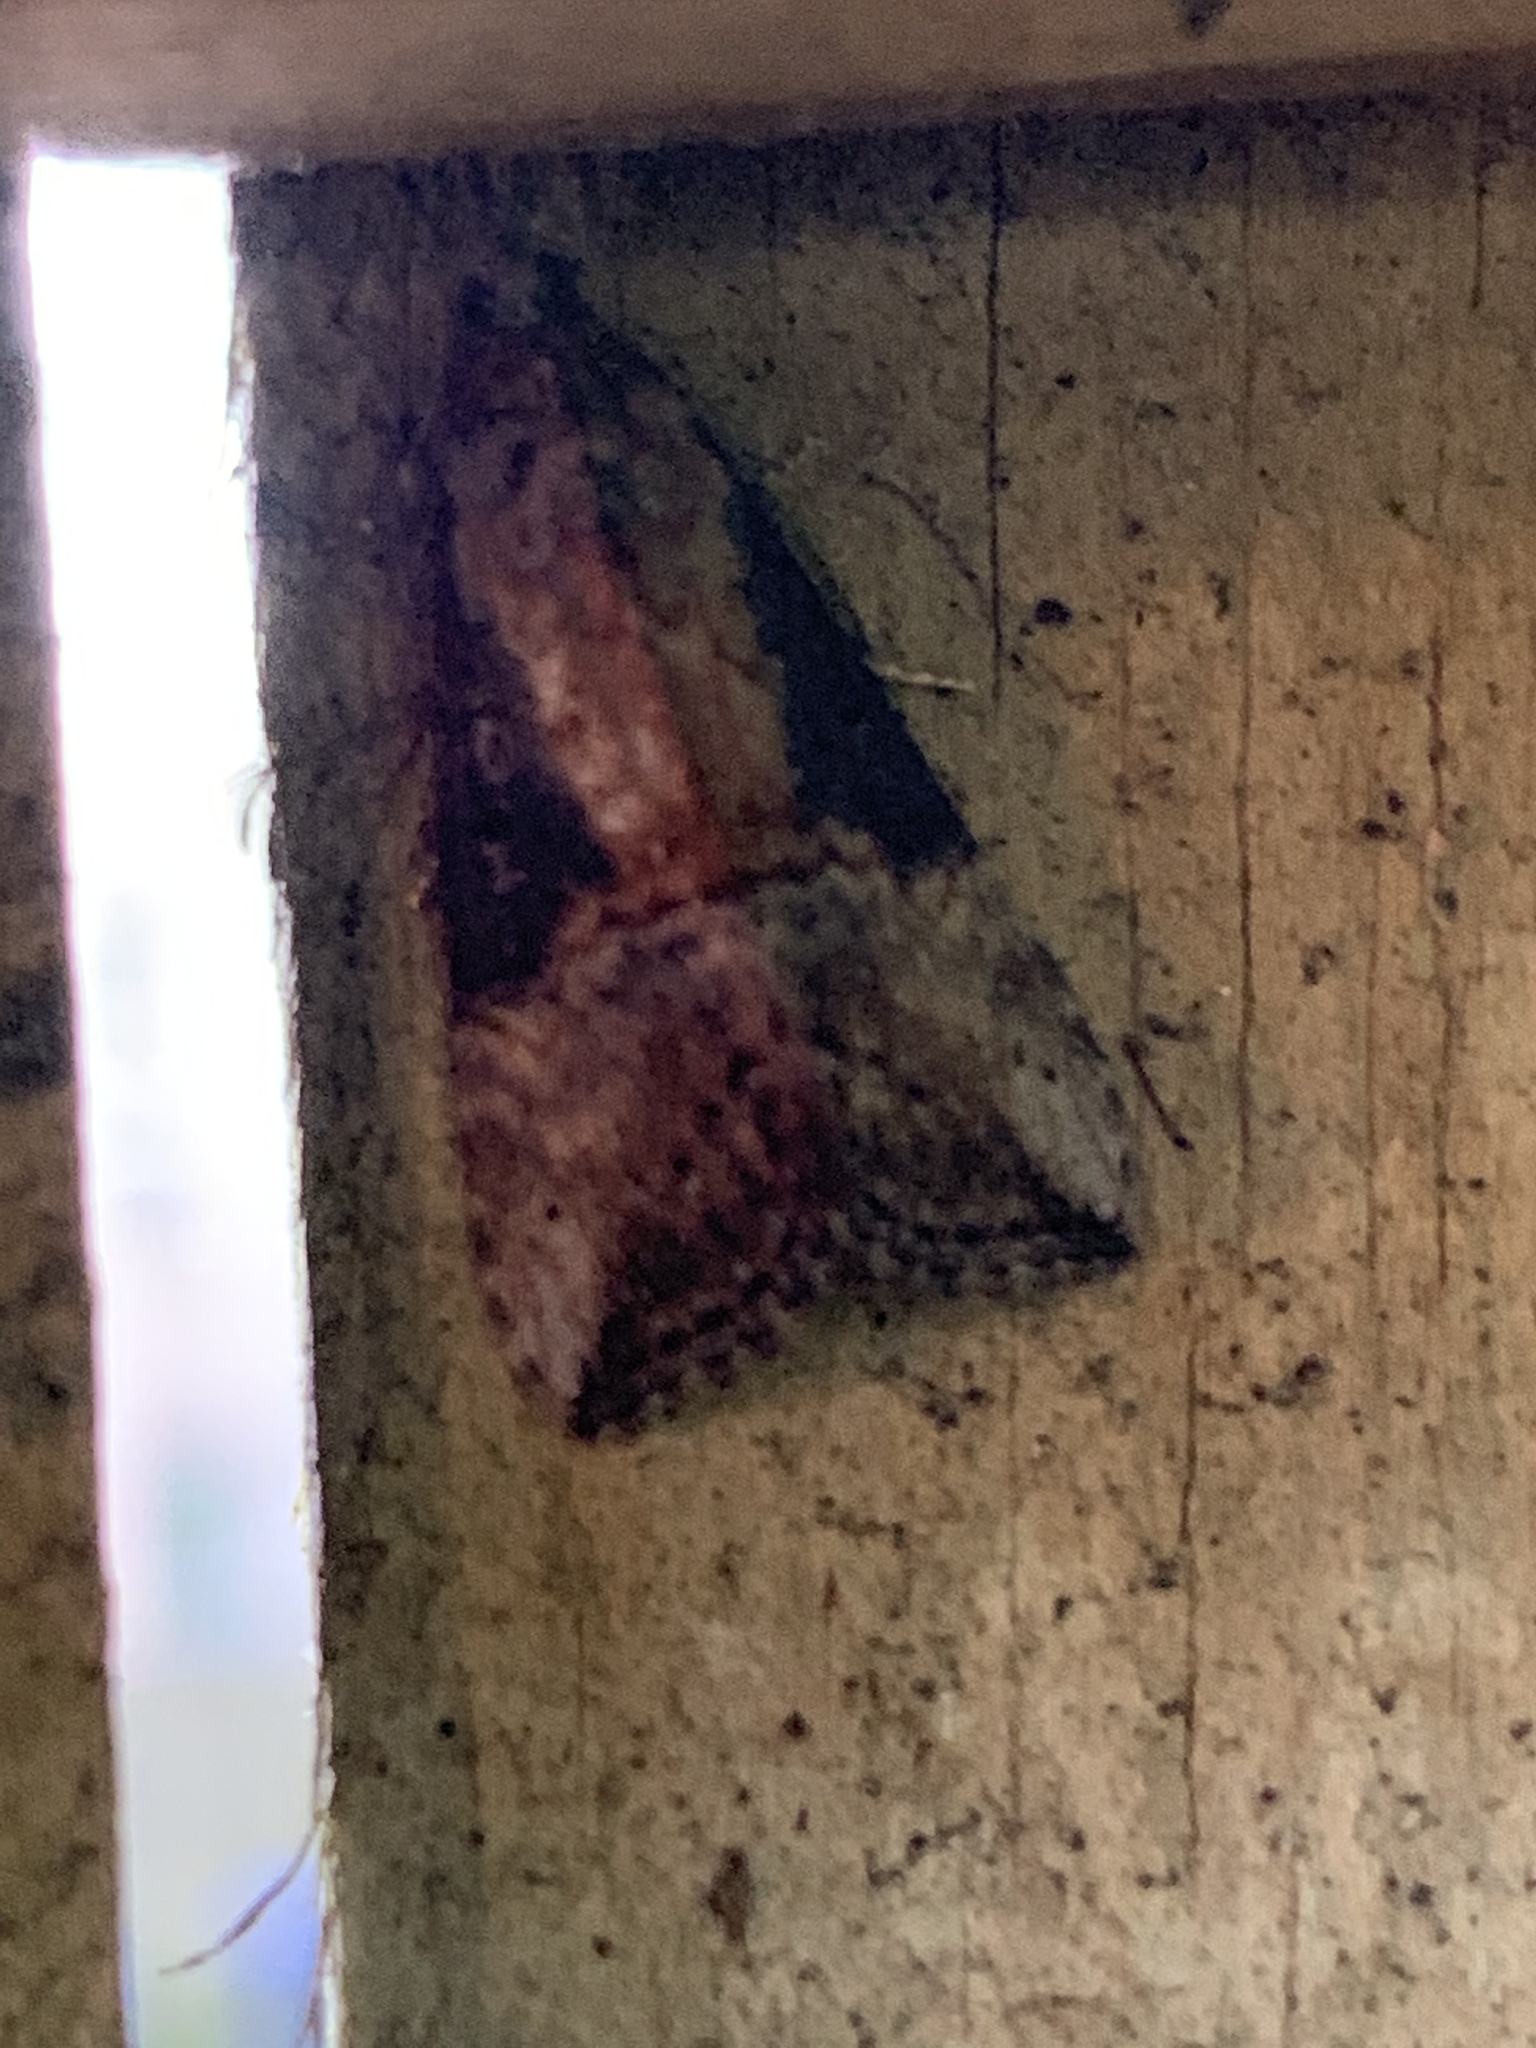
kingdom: Animalia
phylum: Arthropoda
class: Insecta
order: Lepidoptera
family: Erebidae
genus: Hypena
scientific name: Hypena scabra
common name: Green cloverworm
